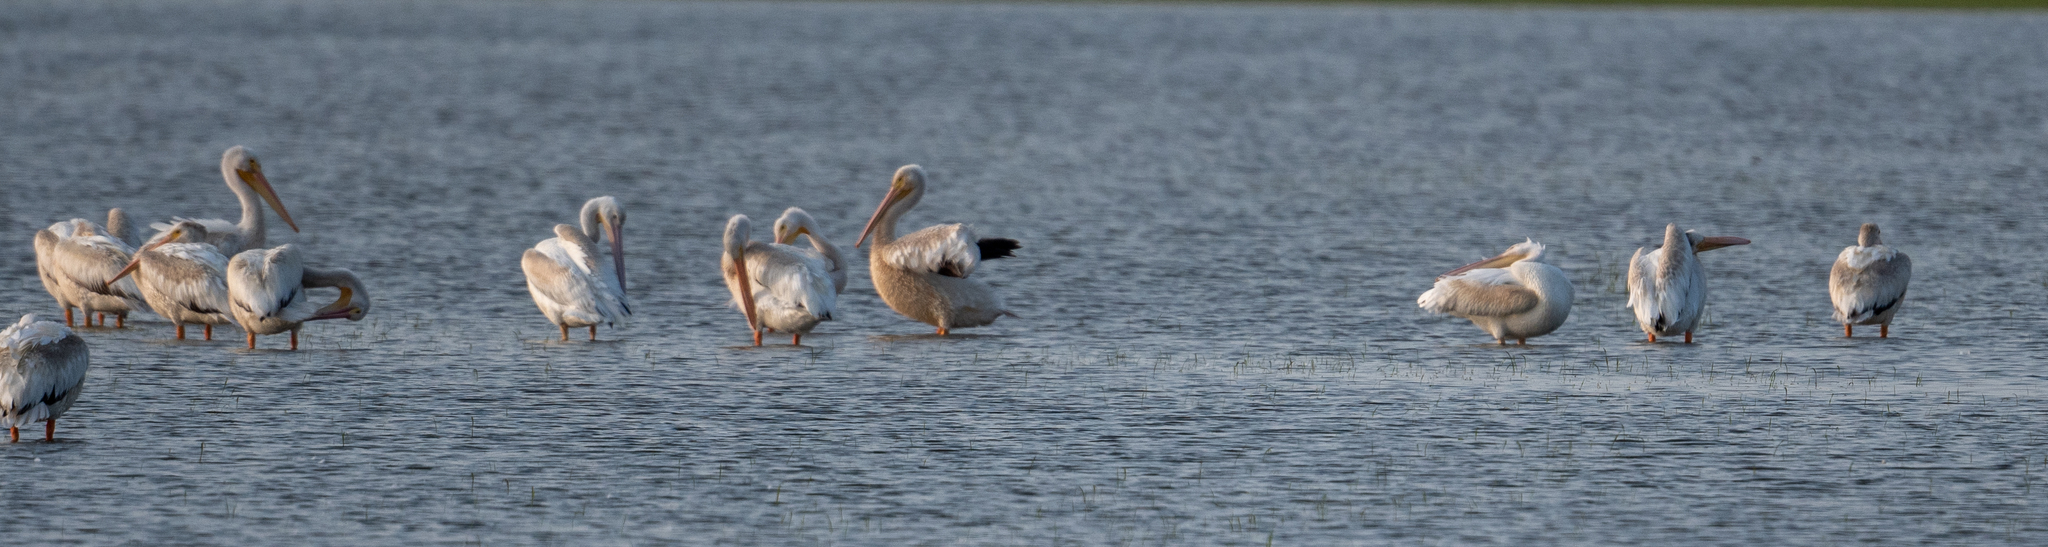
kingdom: Animalia
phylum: Chordata
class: Aves
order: Pelecaniformes
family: Pelecanidae
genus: Pelecanus
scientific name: Pelecanus erythrorhynchos
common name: American white pelican
